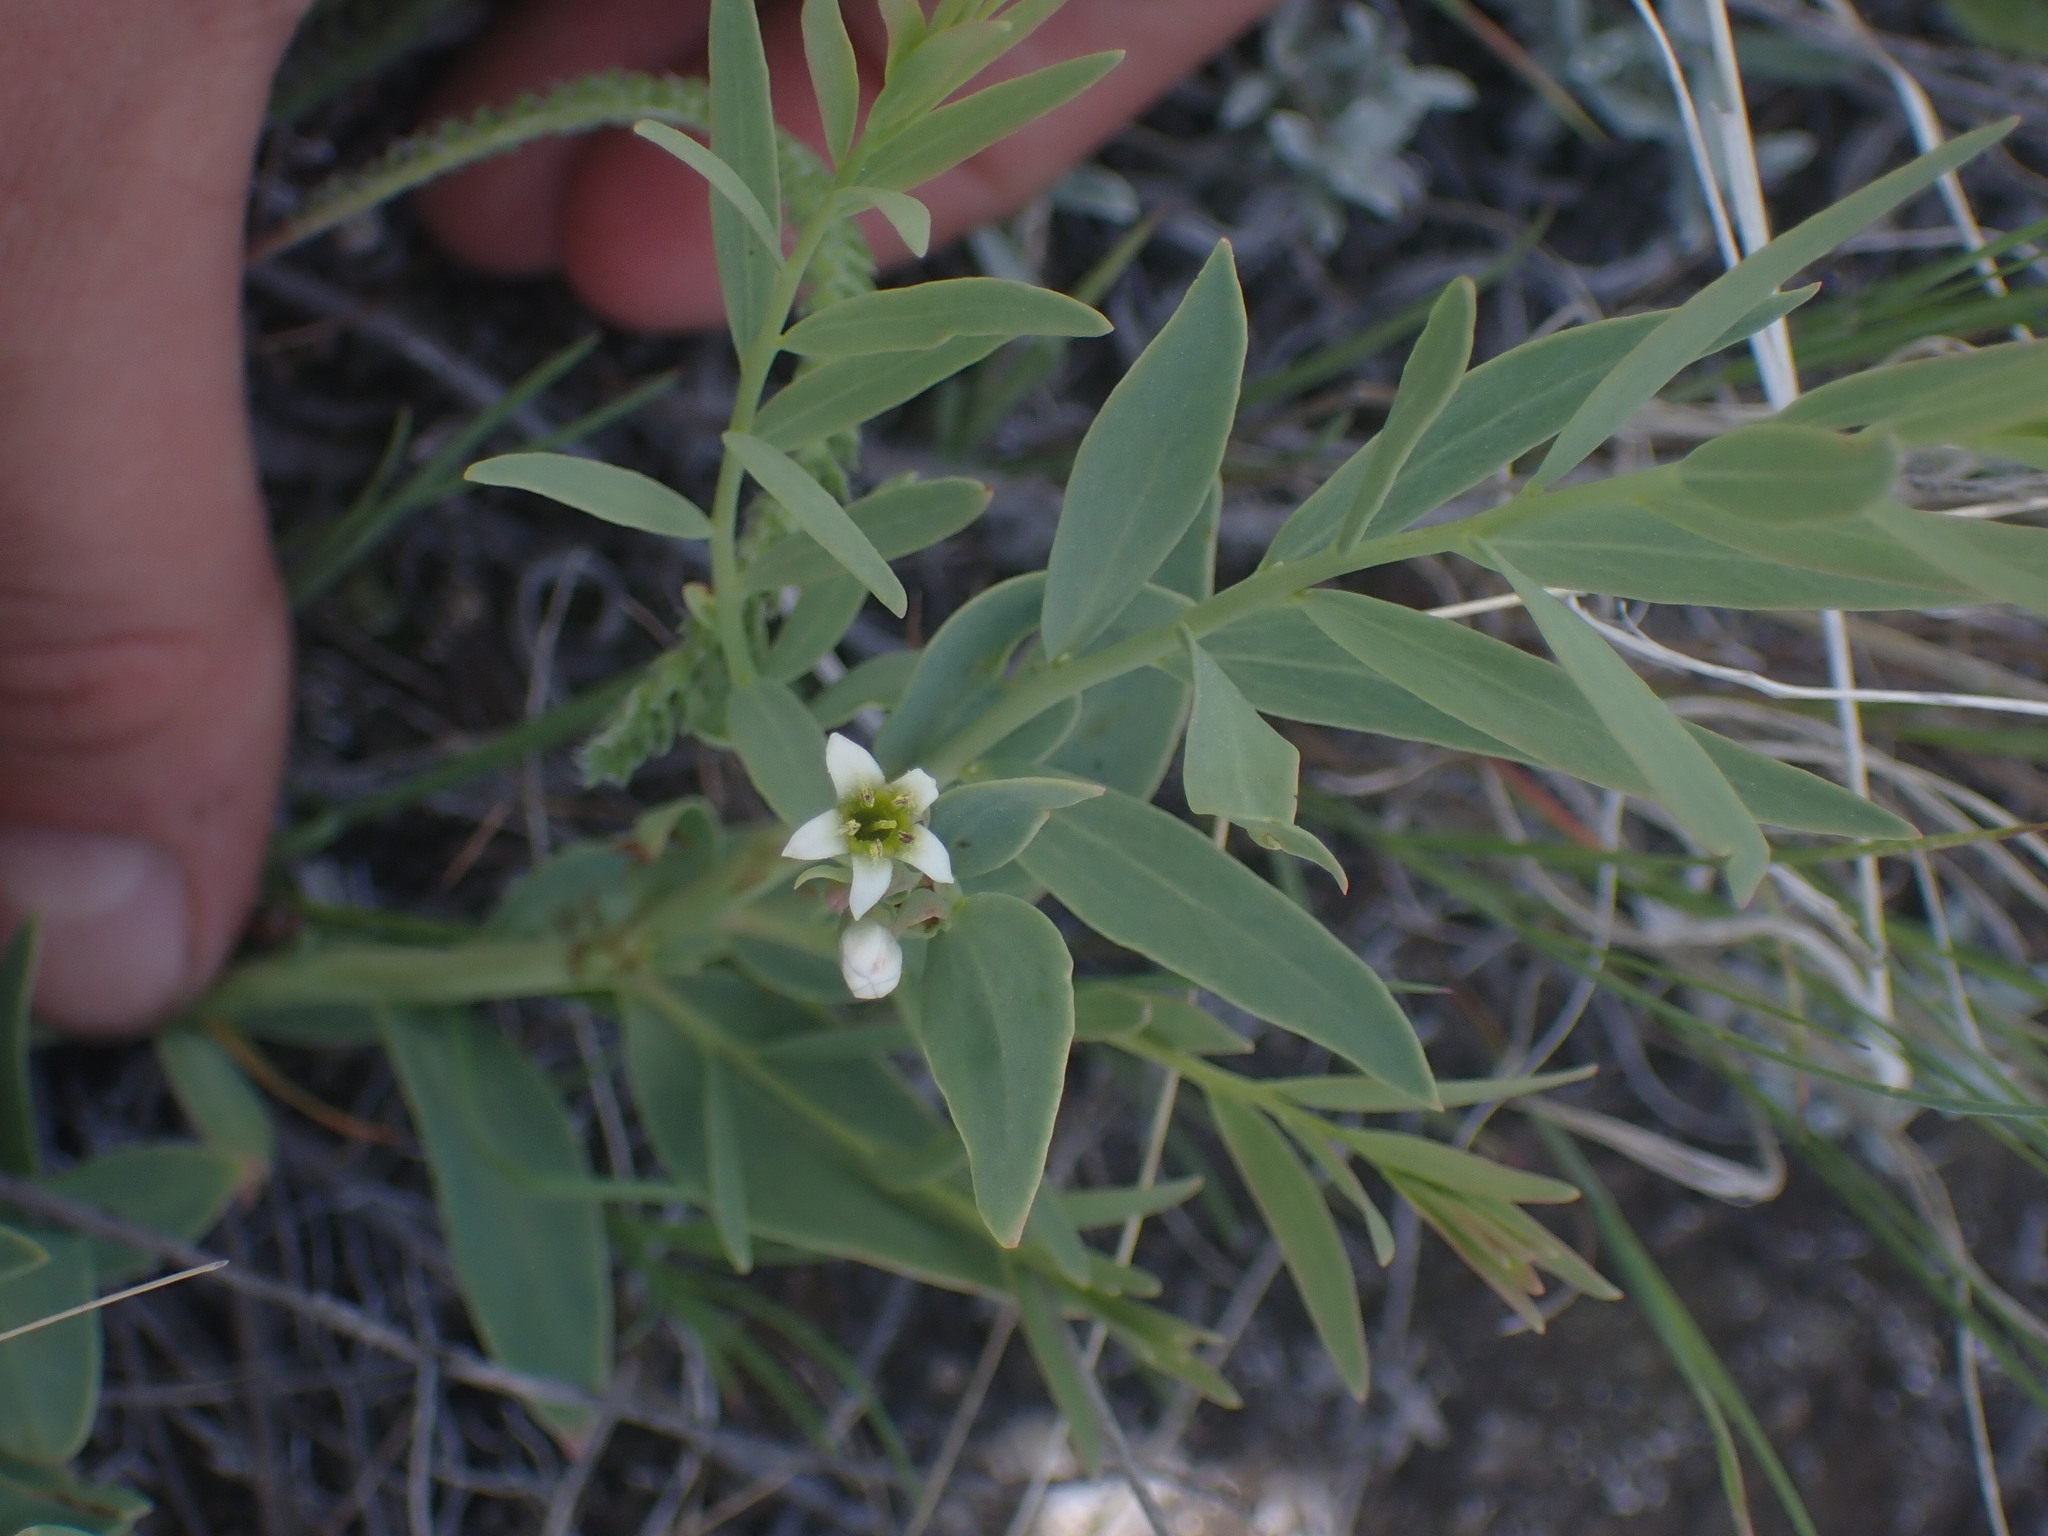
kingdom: Plantae
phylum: Tracheophyta
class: Magnoliopsida
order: Santalales
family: Comandraceae
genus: Comandra
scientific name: Comandra umbellata
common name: Bastard toadflax
